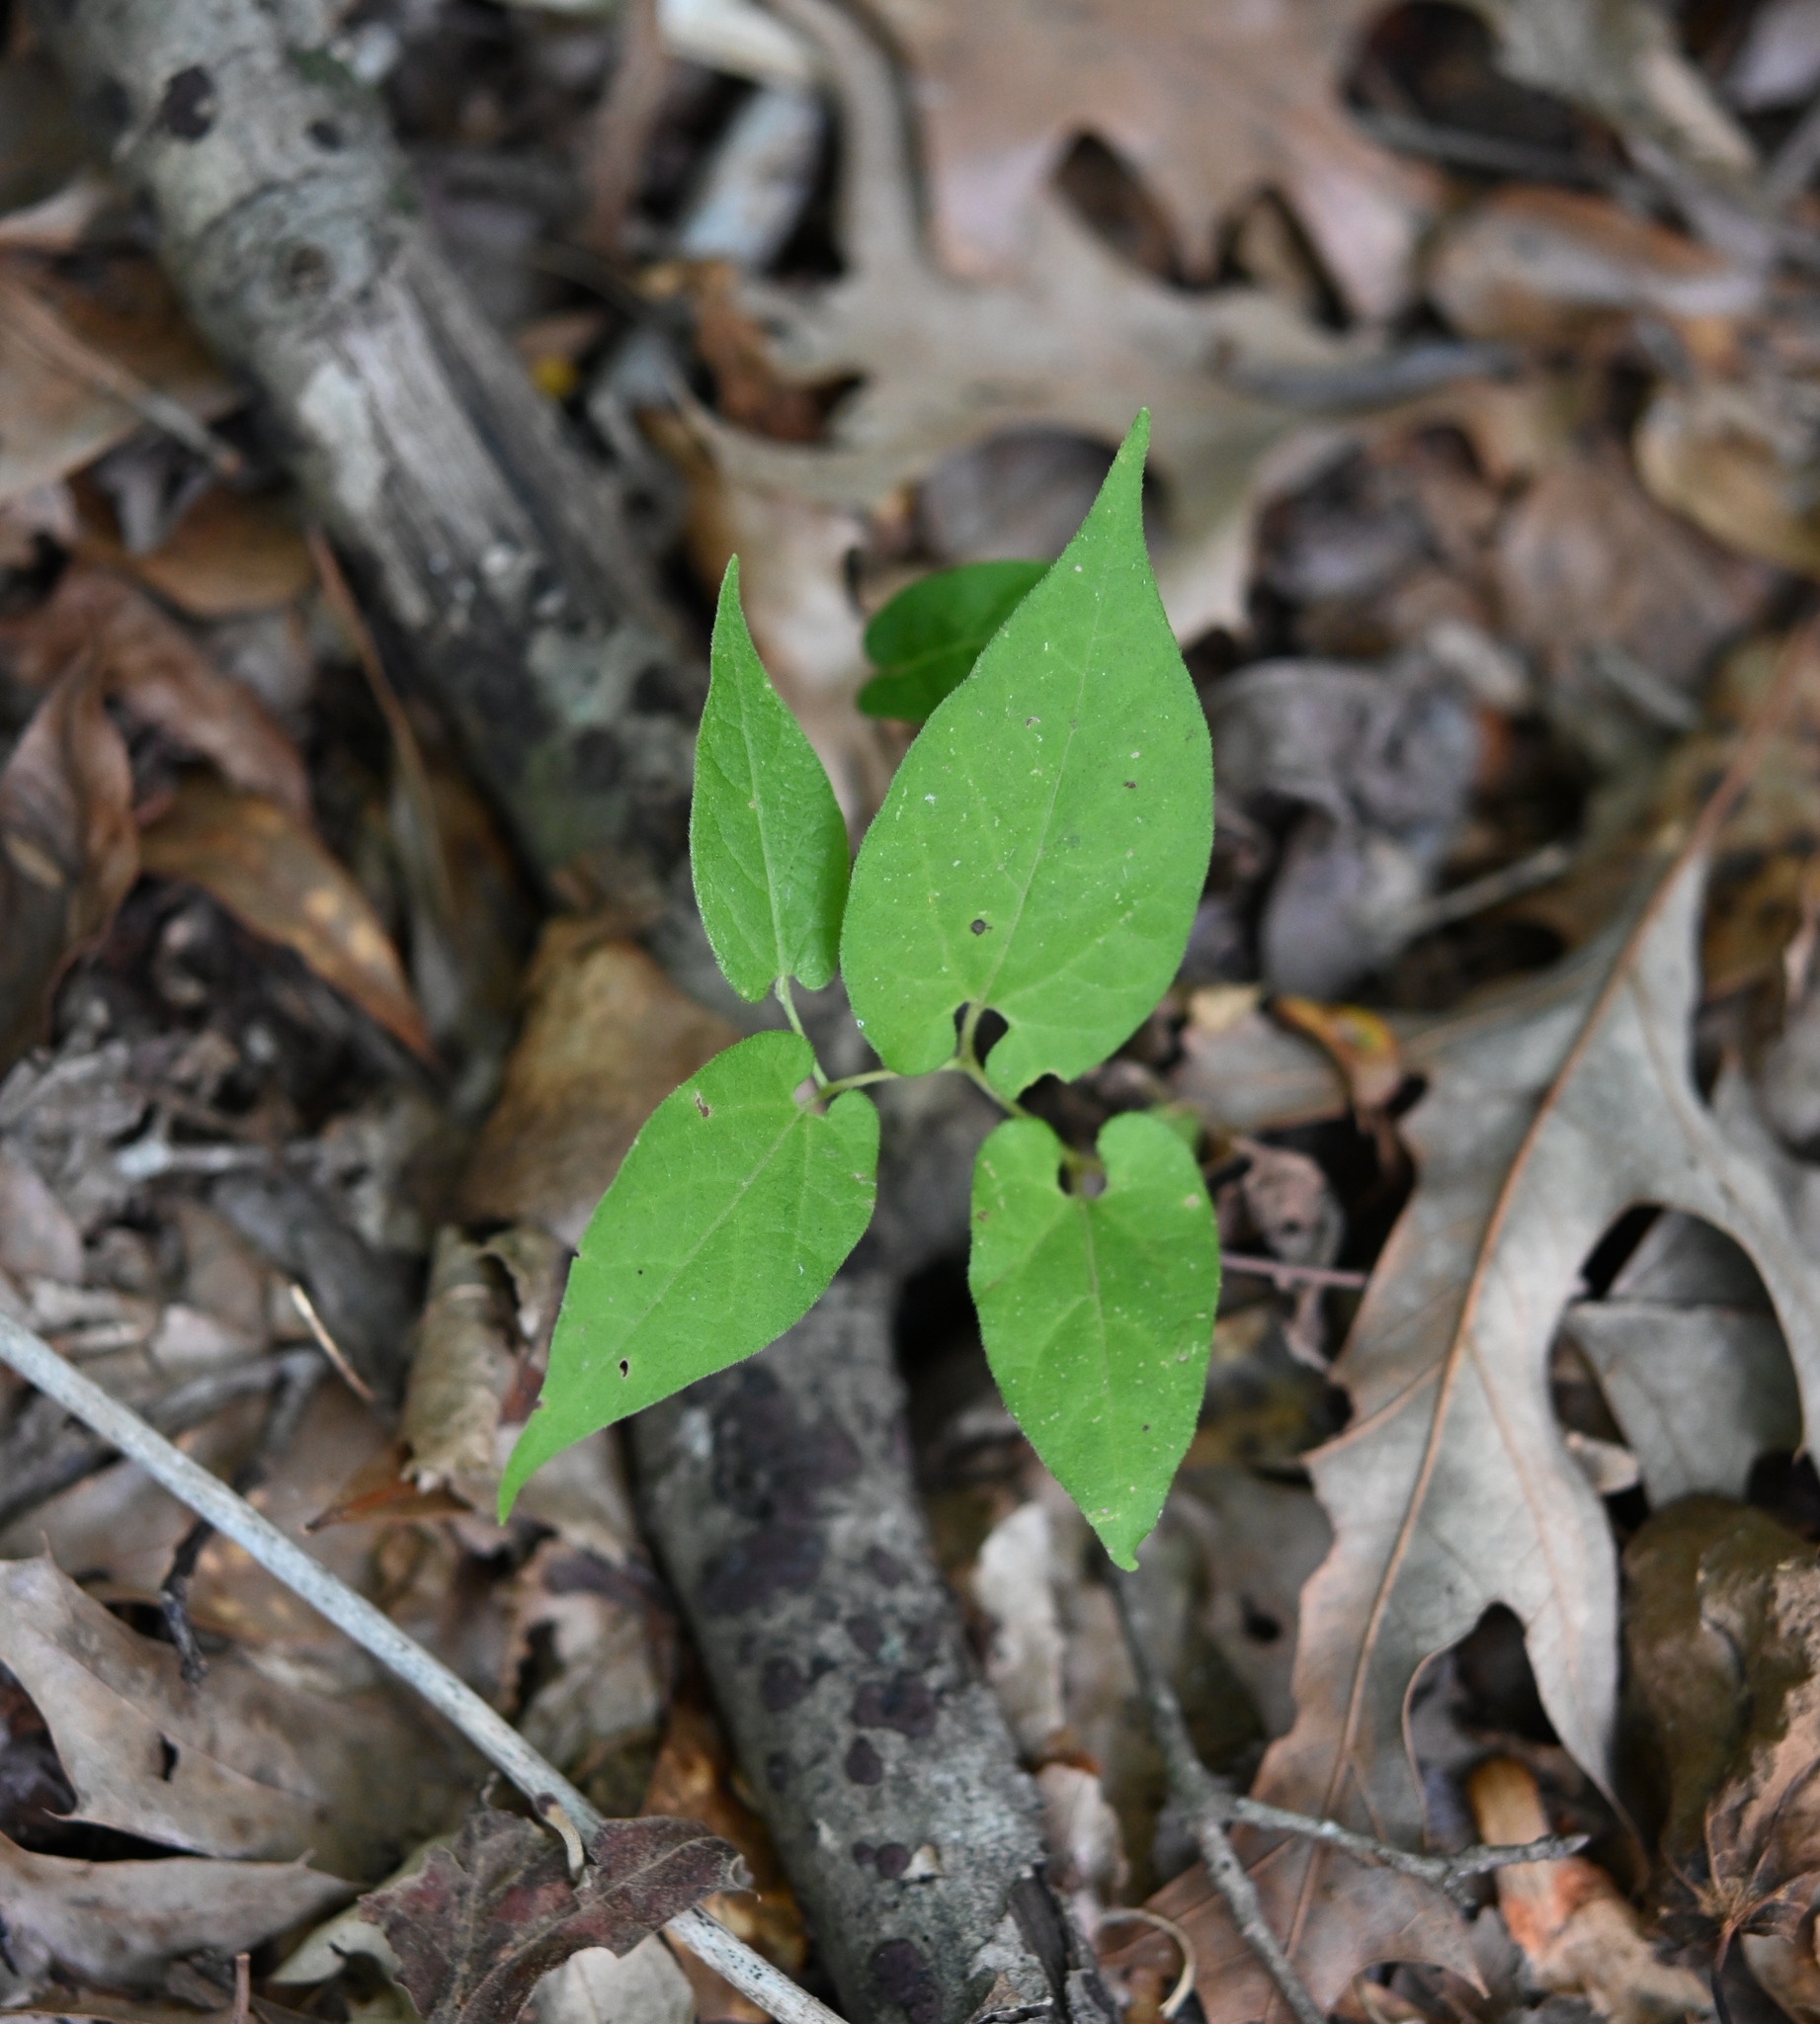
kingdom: Plantae
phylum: Tracheophyta
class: Magnoliopsida
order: Piperales
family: Aristolochiaceae
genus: Endodeca
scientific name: Endodeca serpentaria
